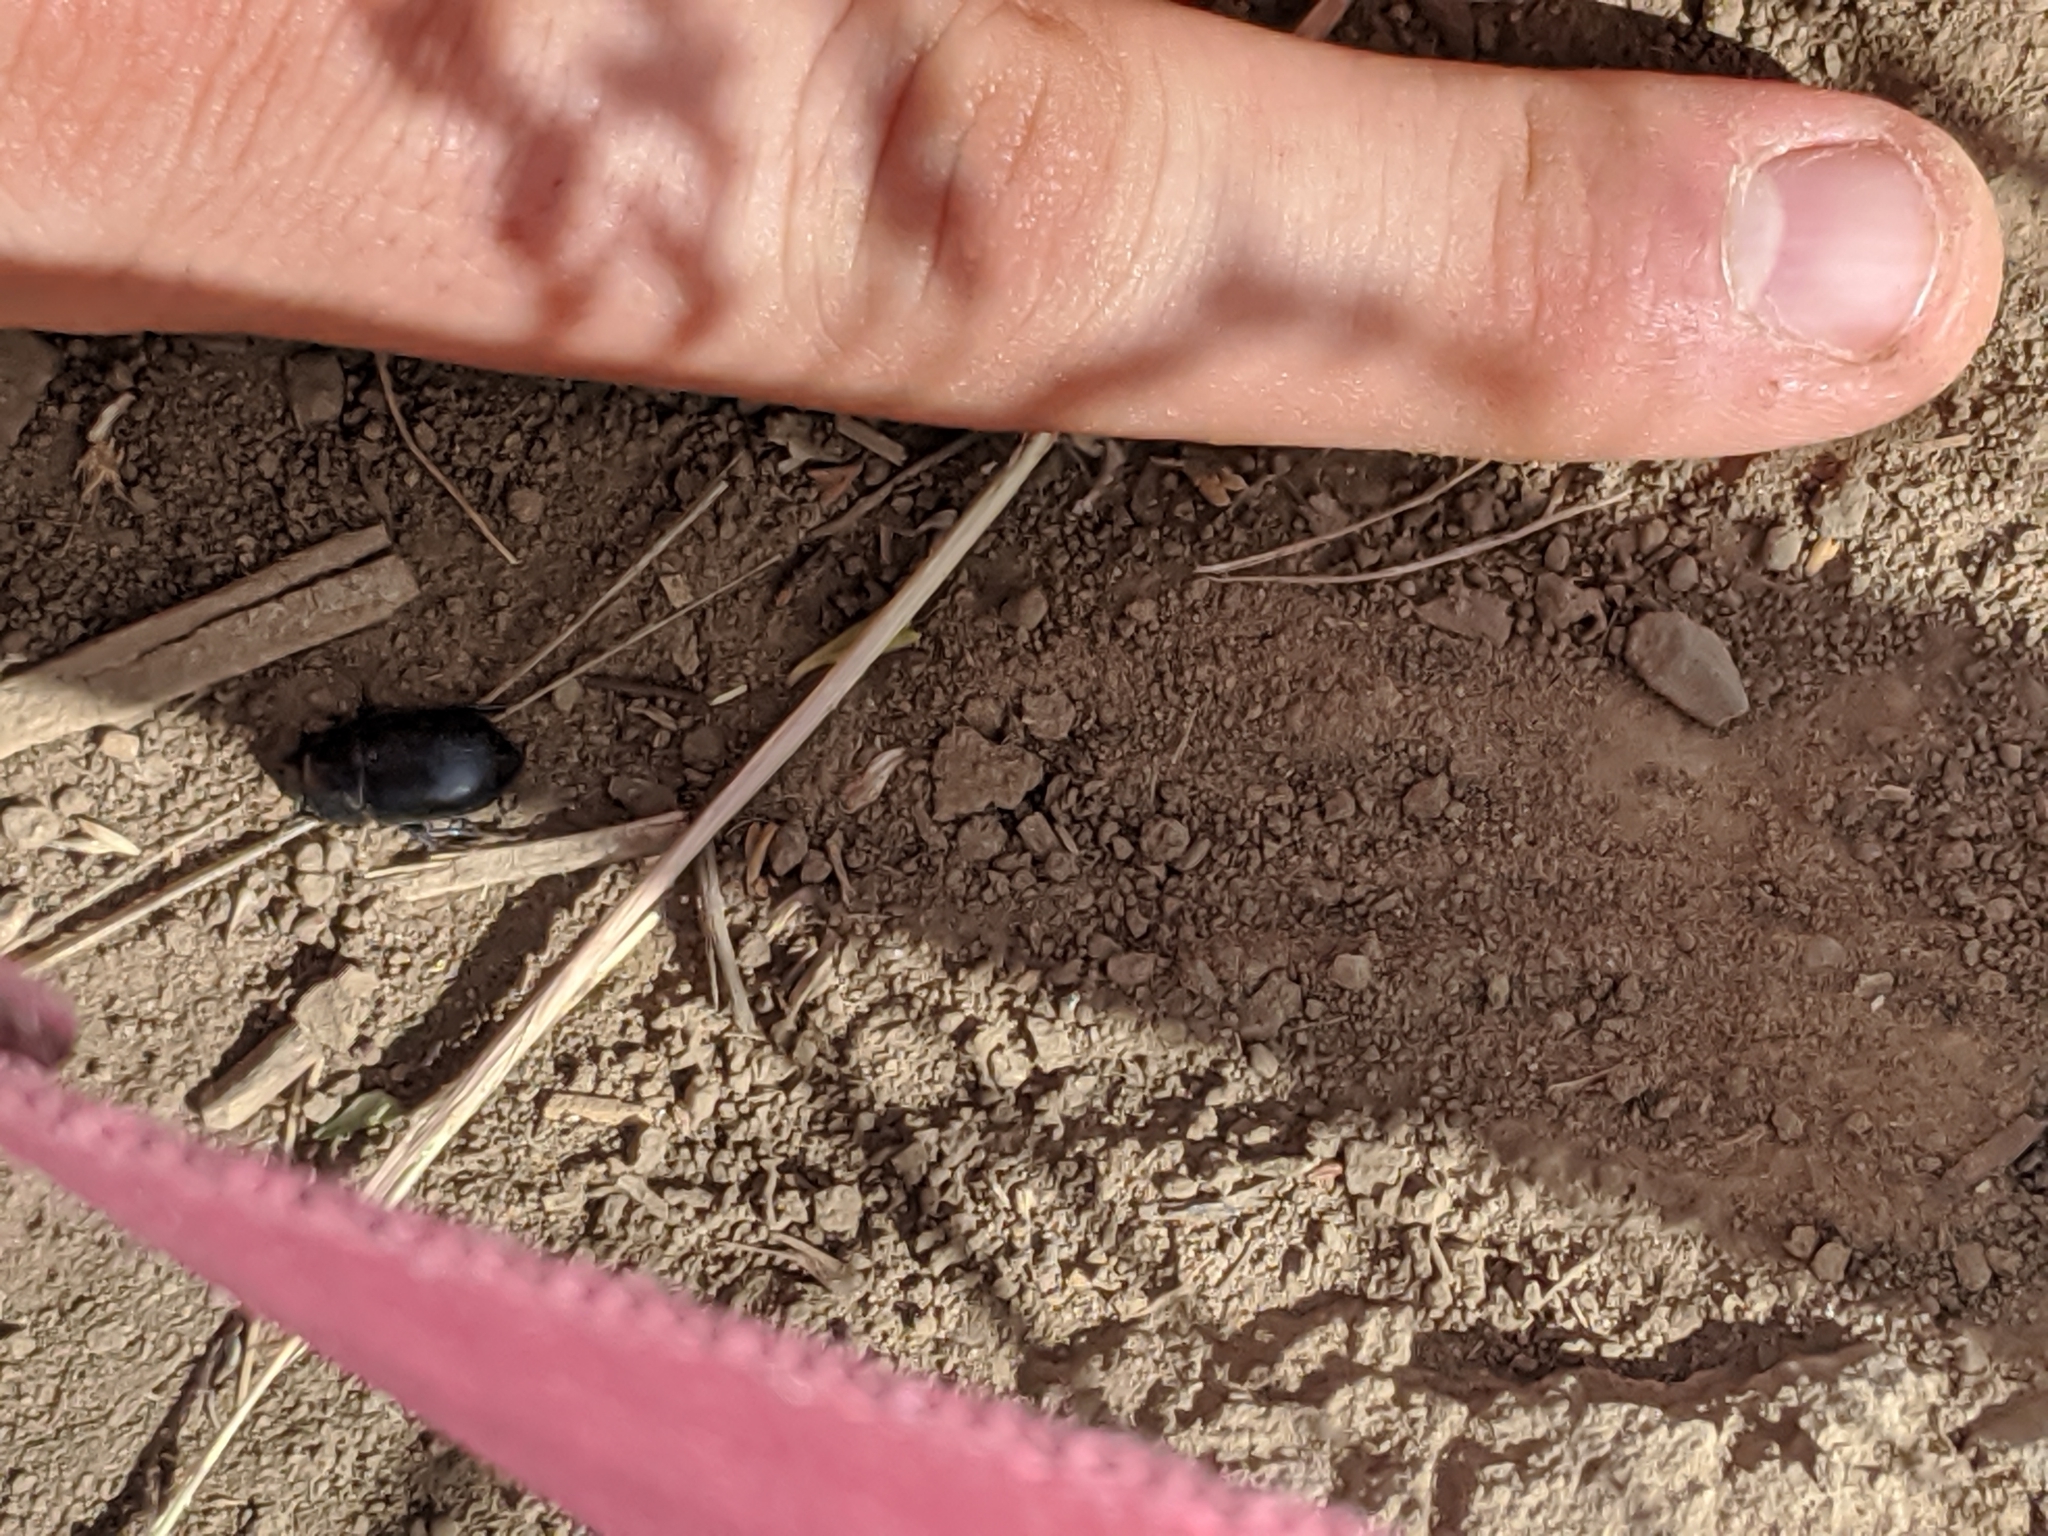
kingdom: Animalia
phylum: Arthropoda
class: Insecta
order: Coleoptera
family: Tenebrionidae
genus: Coniontis
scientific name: Coniontis
